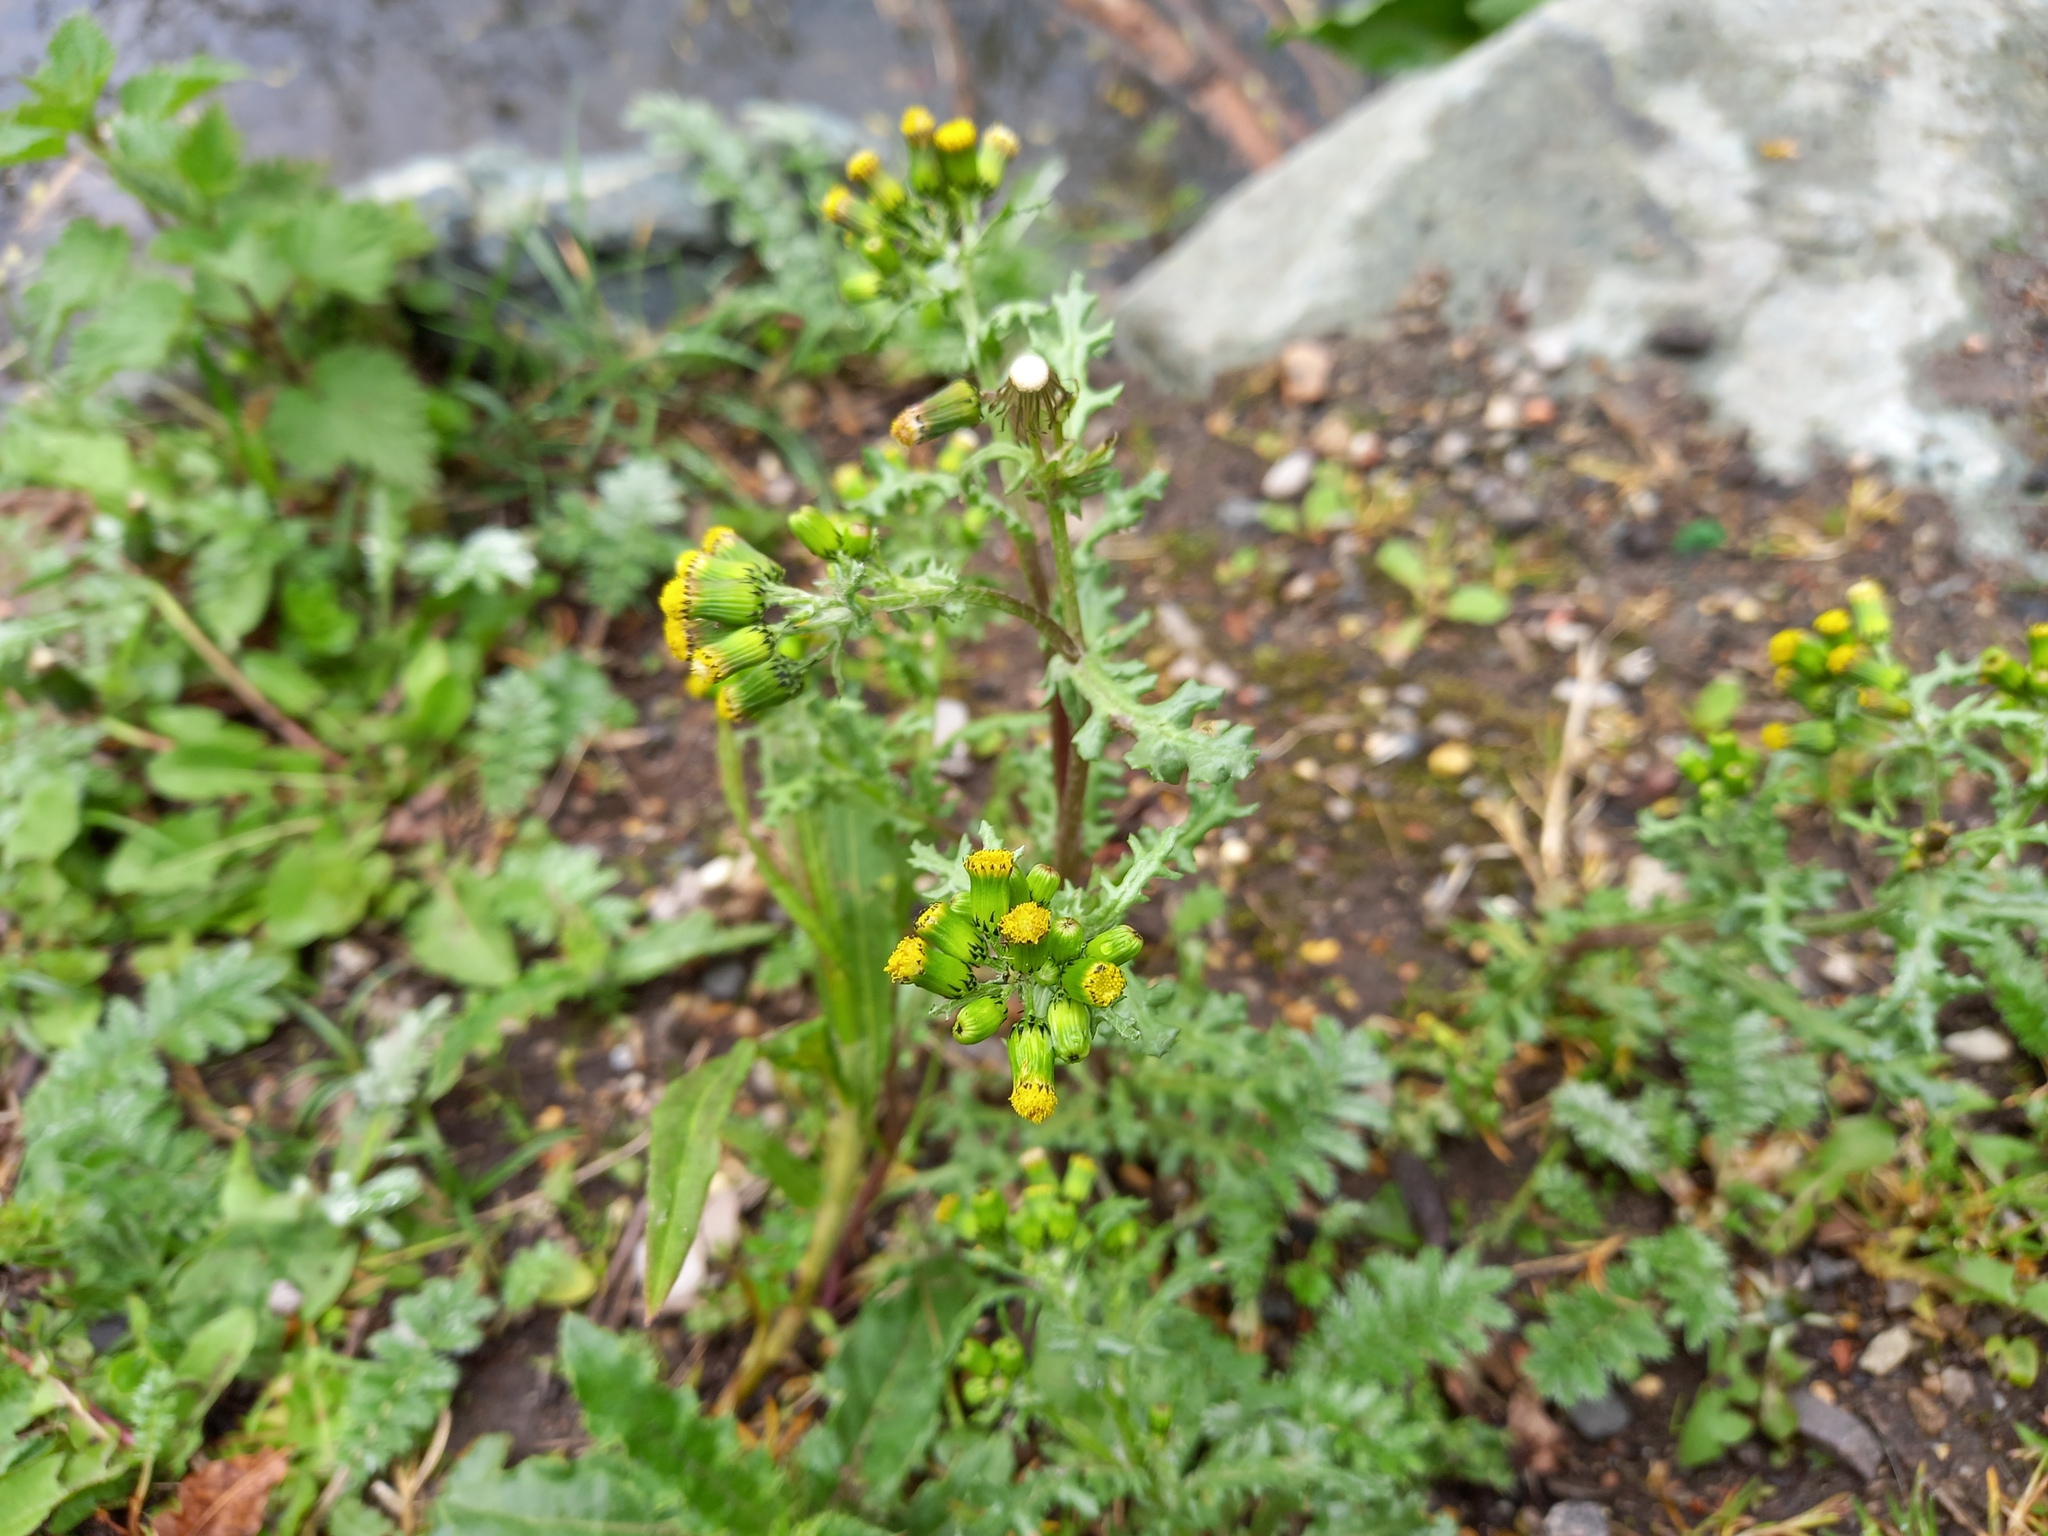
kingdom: Plantae
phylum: Tracheophyta
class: Magnoliopsida
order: Asterales
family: Asteraceae
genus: Senecio
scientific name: Senecio vulgaris
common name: Old-man-in-the-spring
